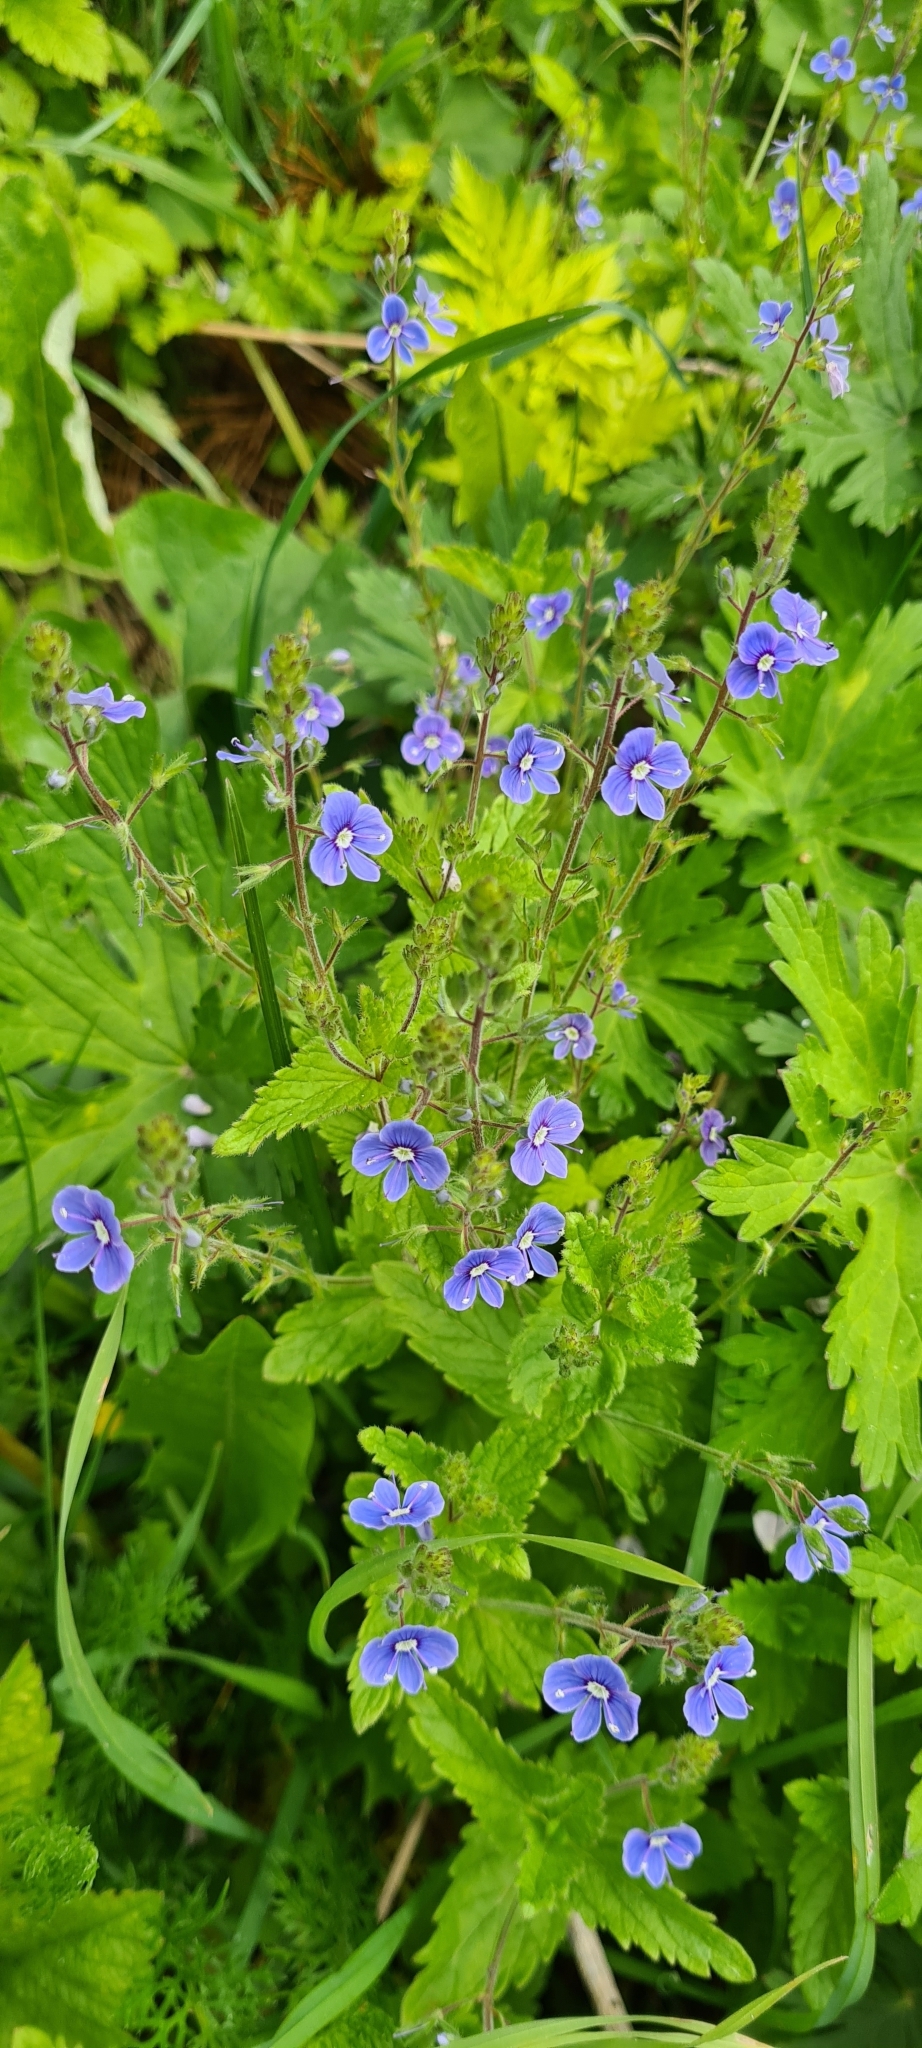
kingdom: Plantae
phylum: Tracheophyta
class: Magnoliopsida
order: Lamiales
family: Plantaginaceae
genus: Veronica
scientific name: Veronica chamaedrys
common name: Germander speedwell
